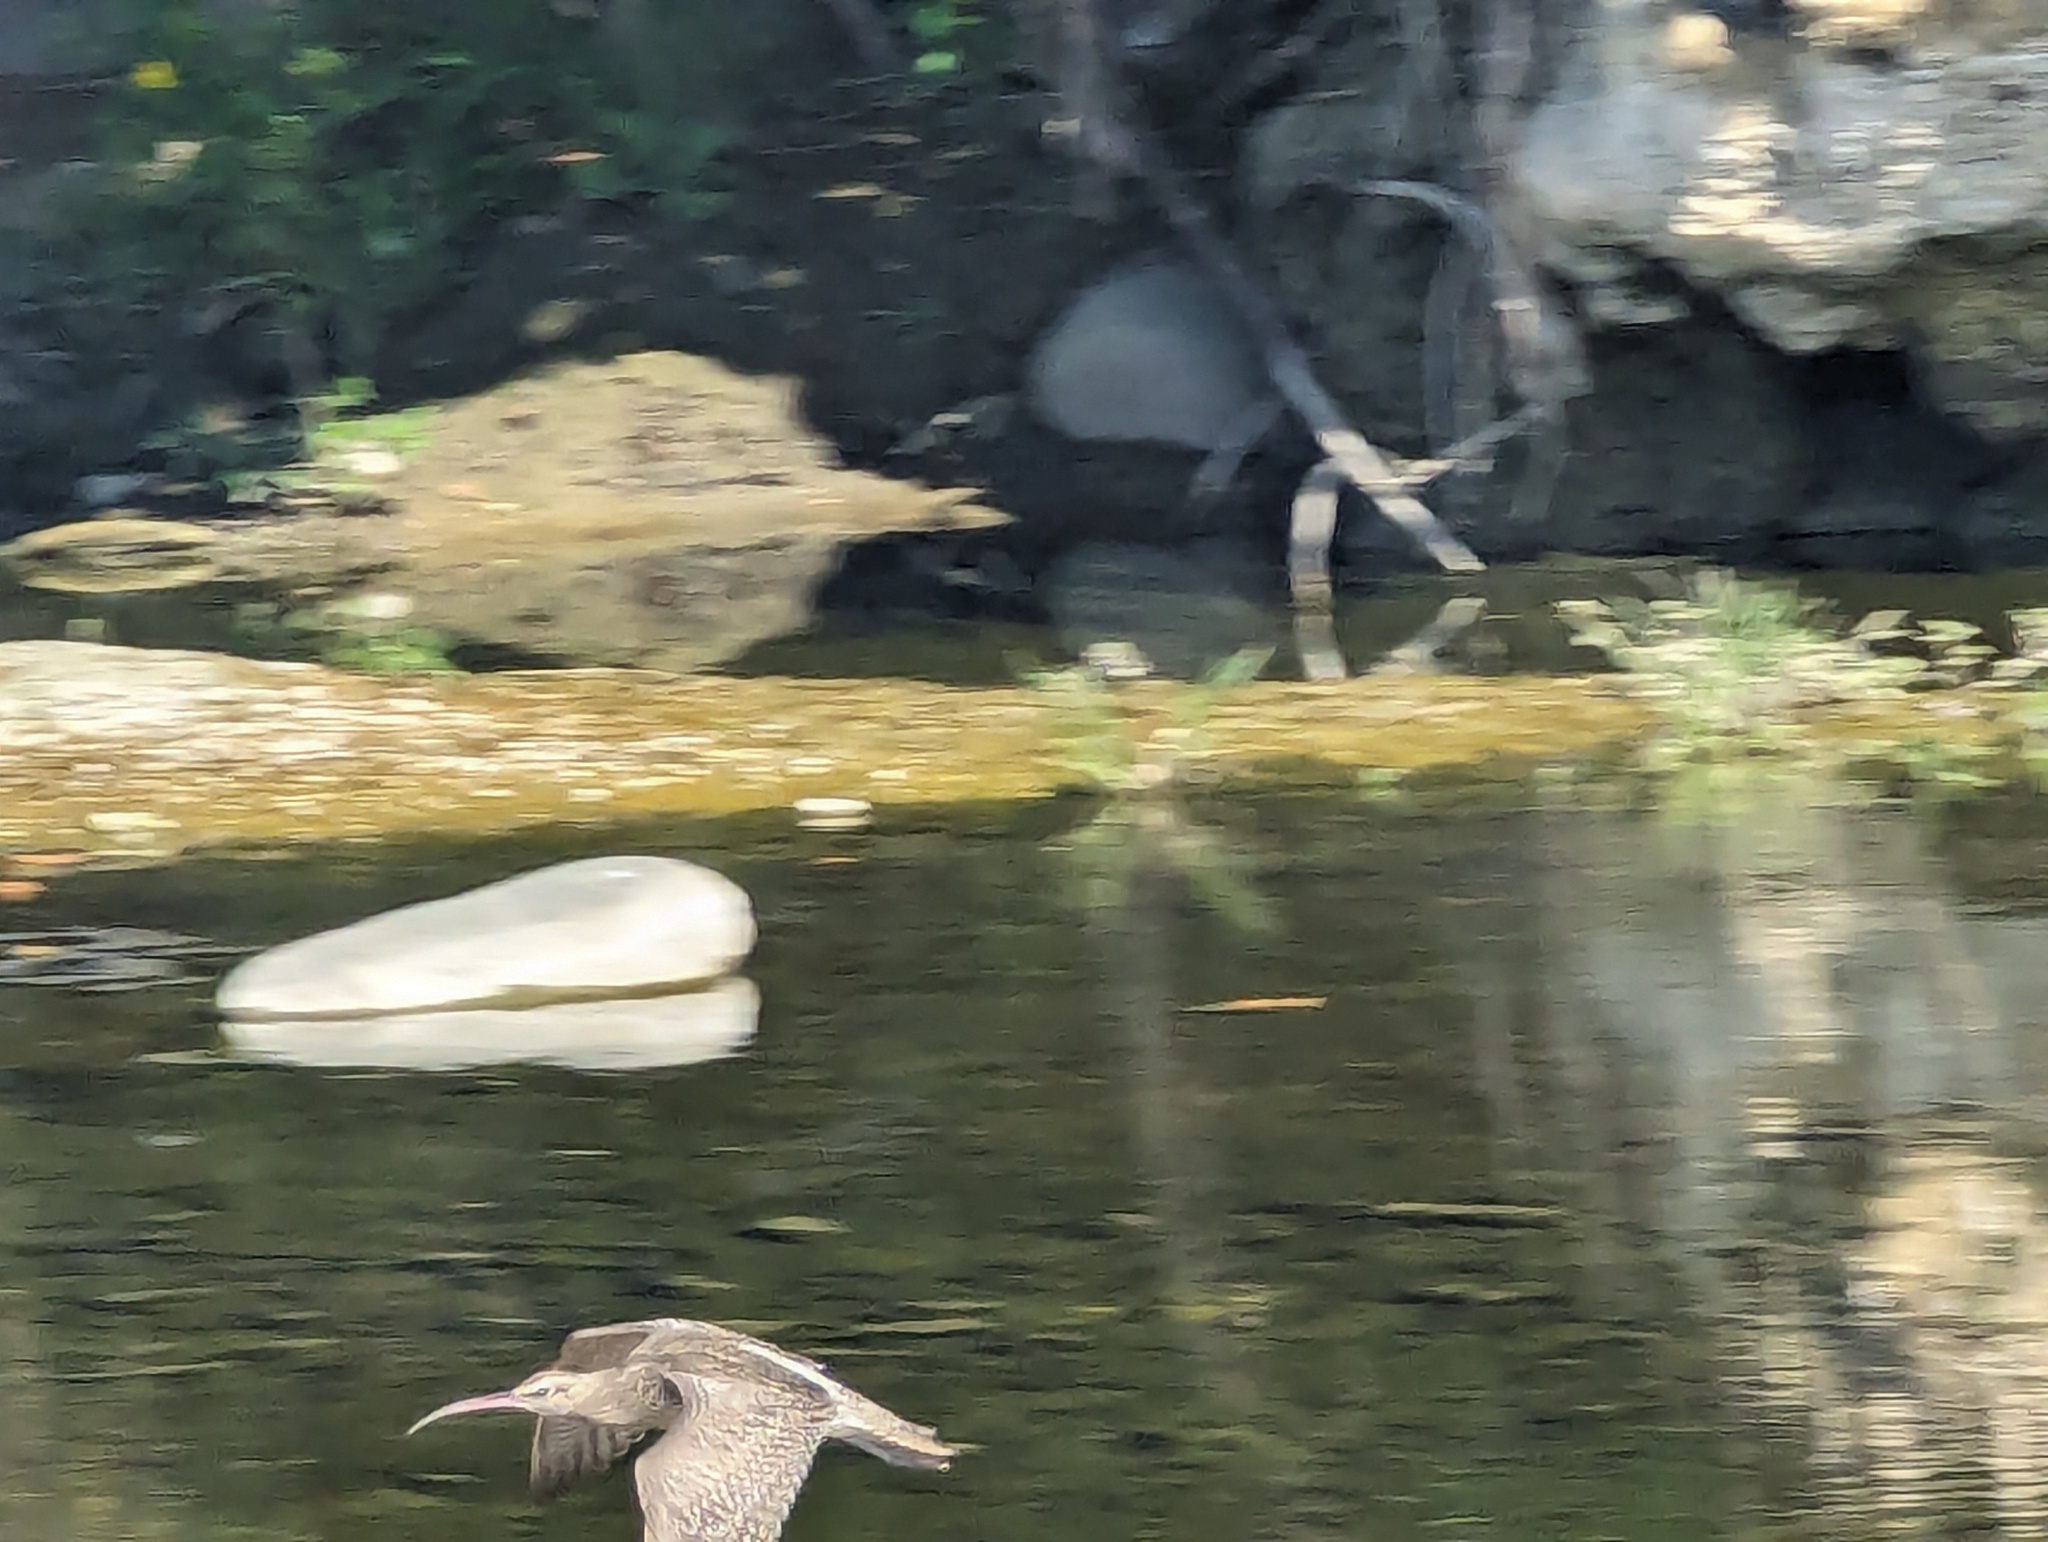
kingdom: Animalia
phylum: Chordata
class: Aves
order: Charadriiformes
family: Scolopacidae
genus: Numenius
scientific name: Numenius phaeopus
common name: Whimbrel
